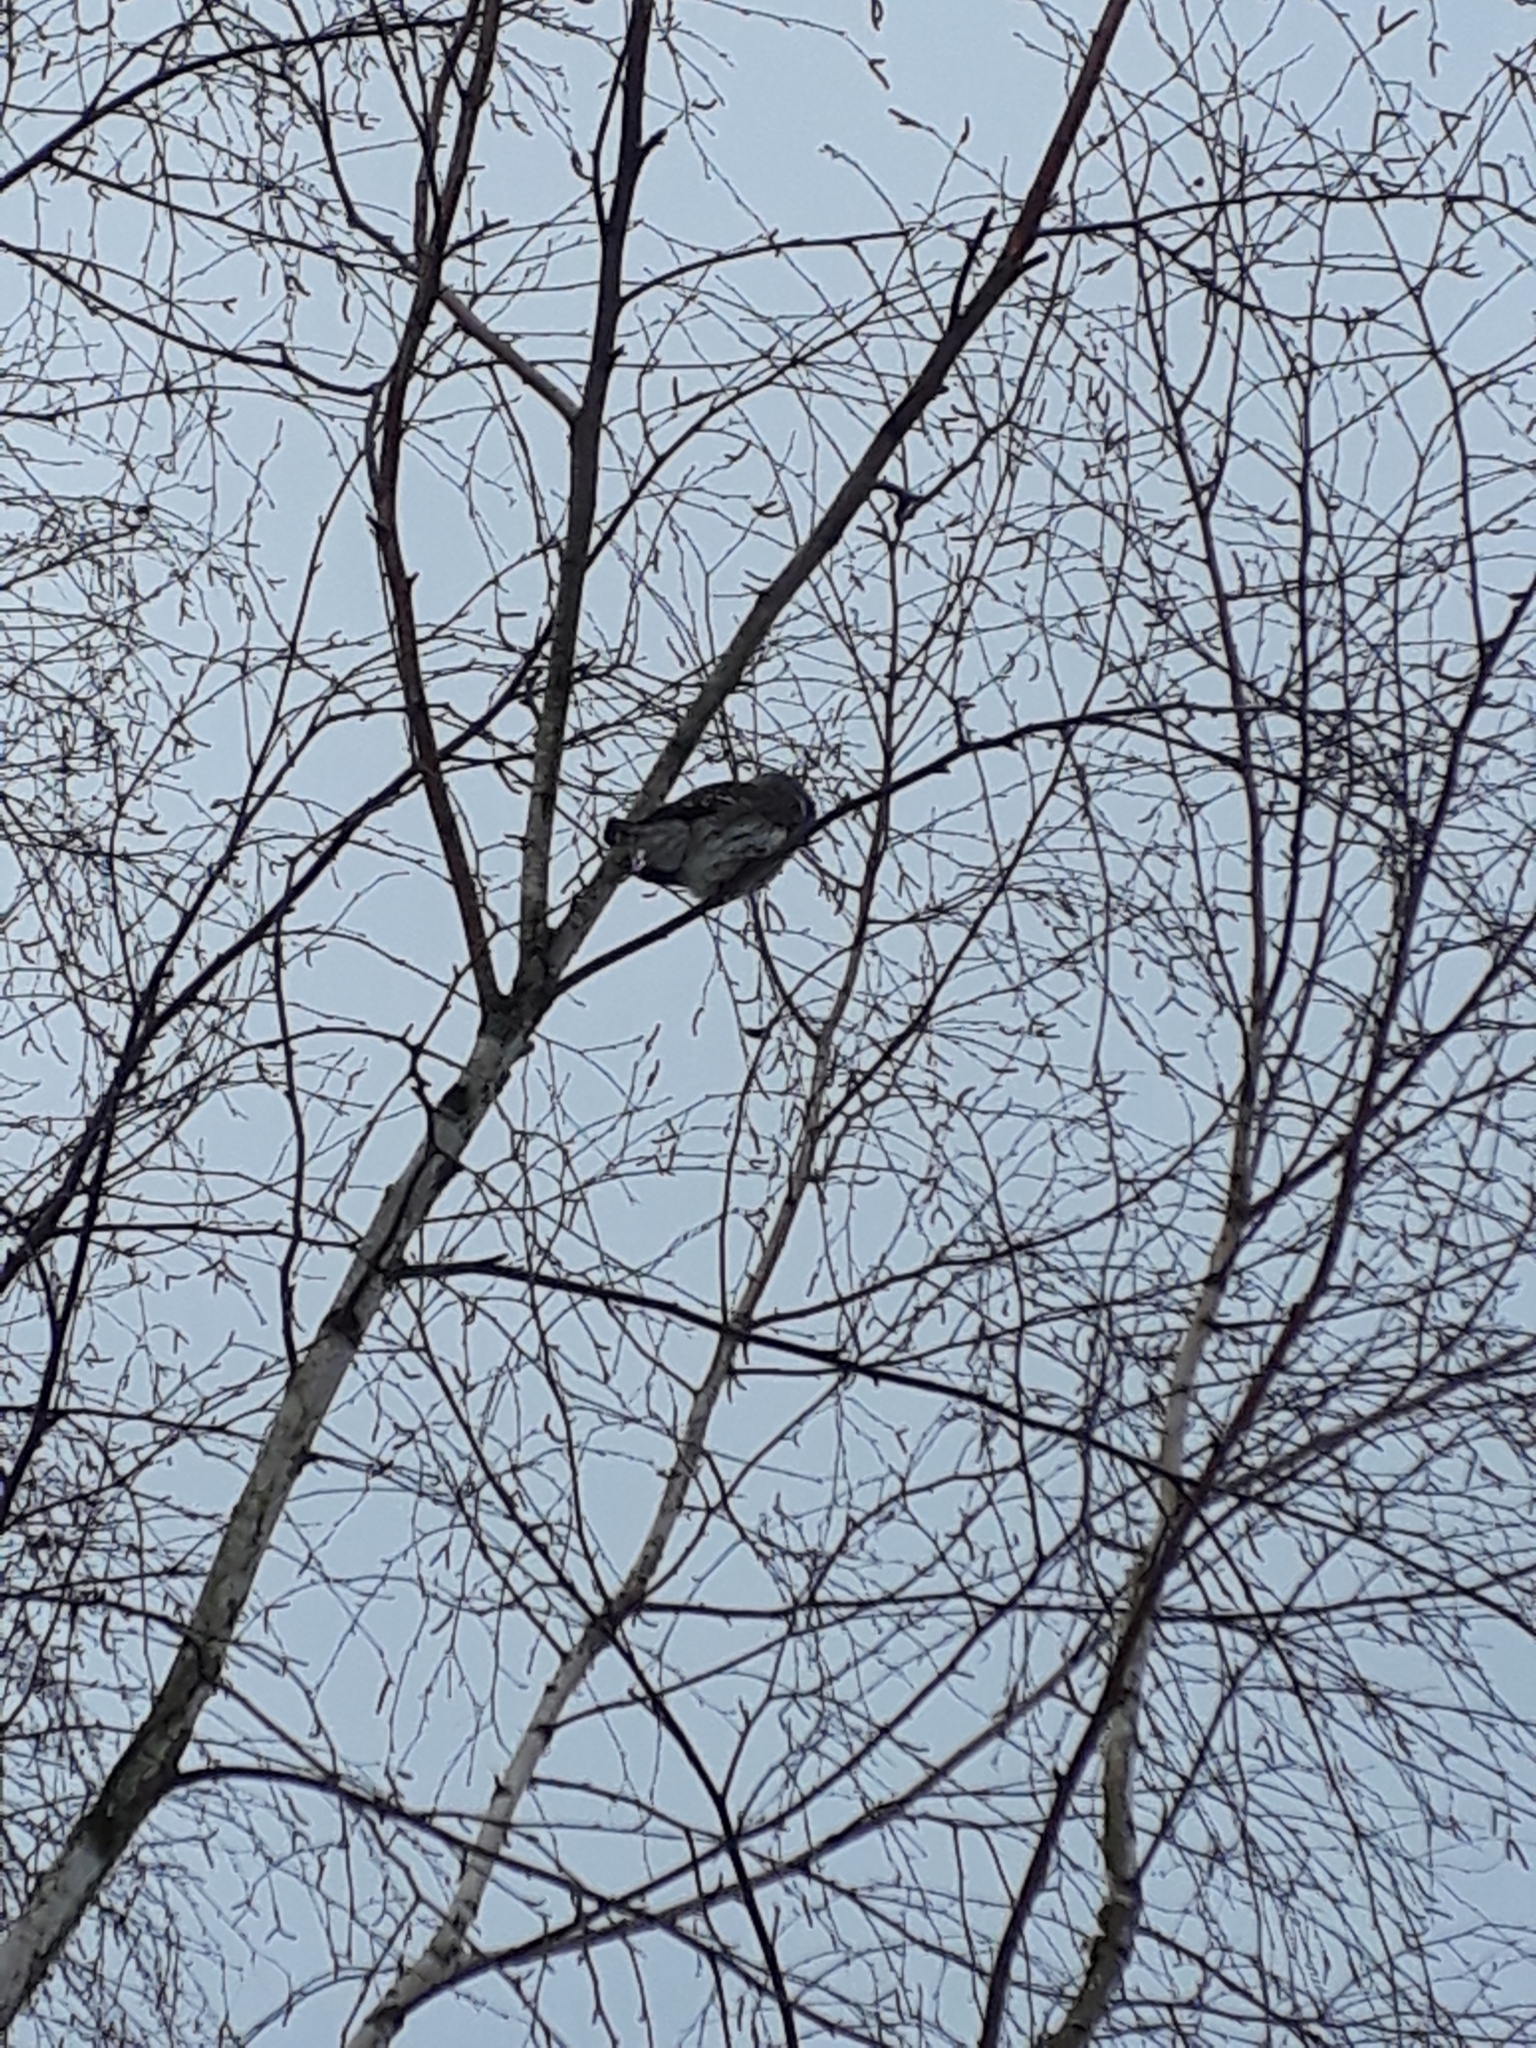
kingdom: Animalia
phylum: Chordata
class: Aves
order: Strigiformes
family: Strigidae
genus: Glaucidium
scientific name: Glaucidium passerinum
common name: Eurasian pygmy owl
